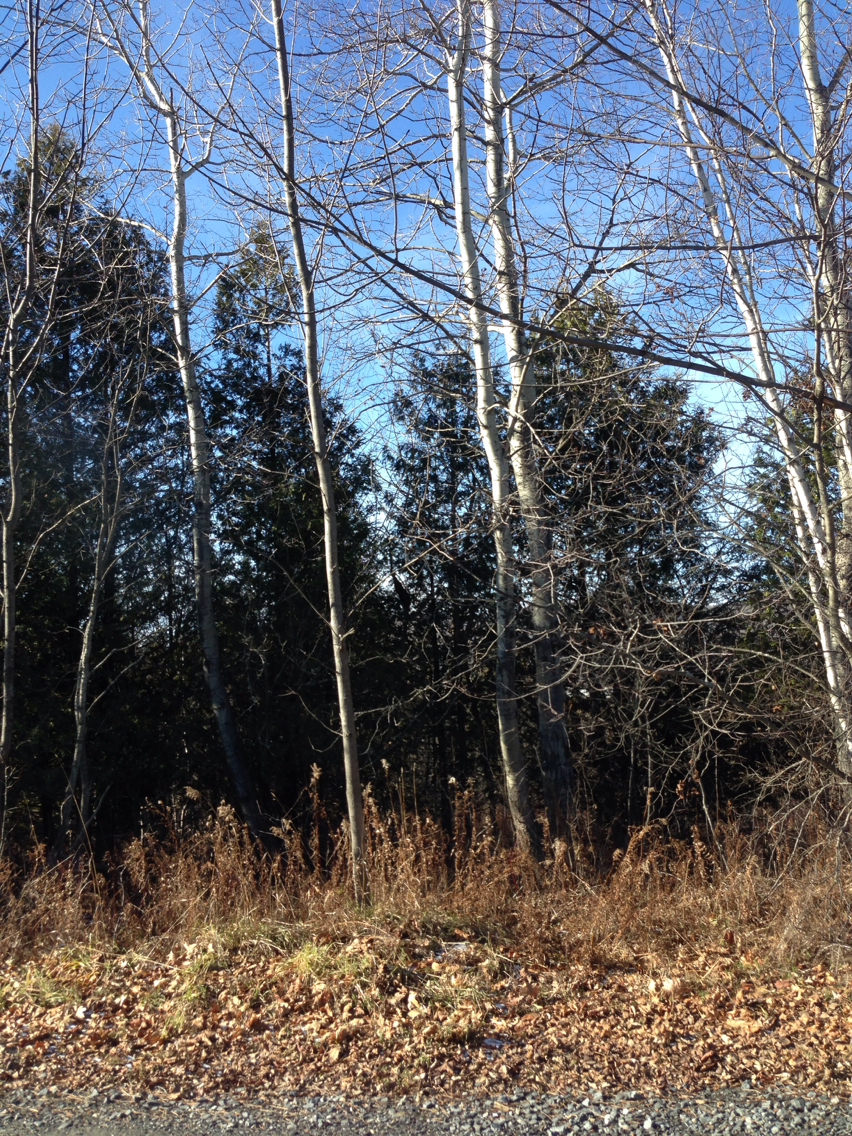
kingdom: Plantae
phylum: Tracheophyta
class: Magnoliopsida
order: Malpighiales
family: Salicaceae
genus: Populus
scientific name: Populus tremuloides
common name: Quaking aspen
